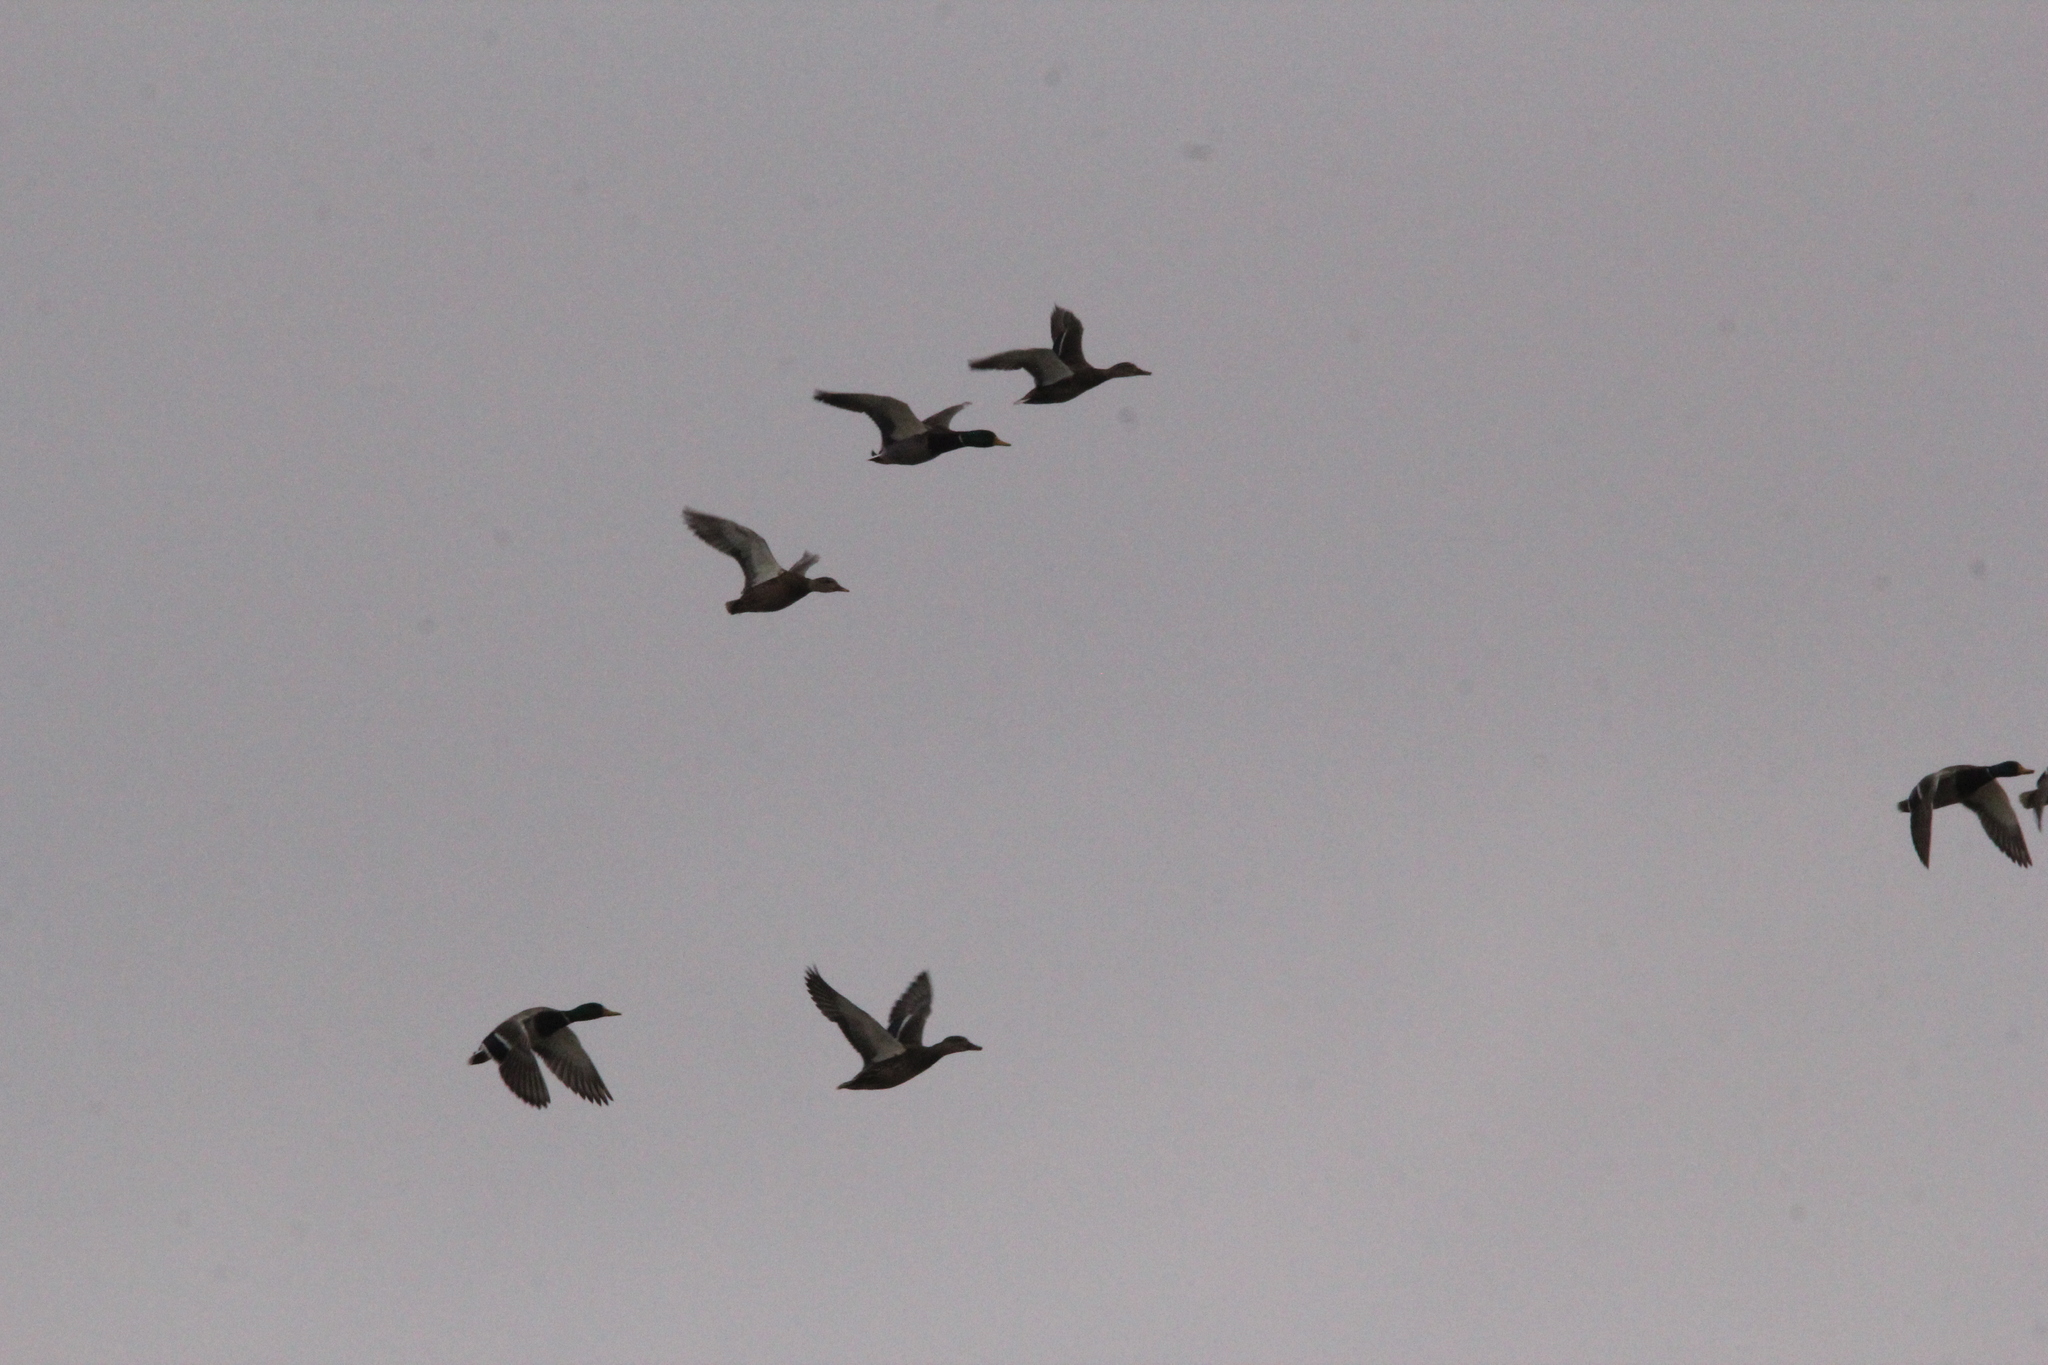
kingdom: Animalia
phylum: Chordata
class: Aves
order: Anseriformes
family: Anatidae
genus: Anas
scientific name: Anas platyrhynchos
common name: Mallard
